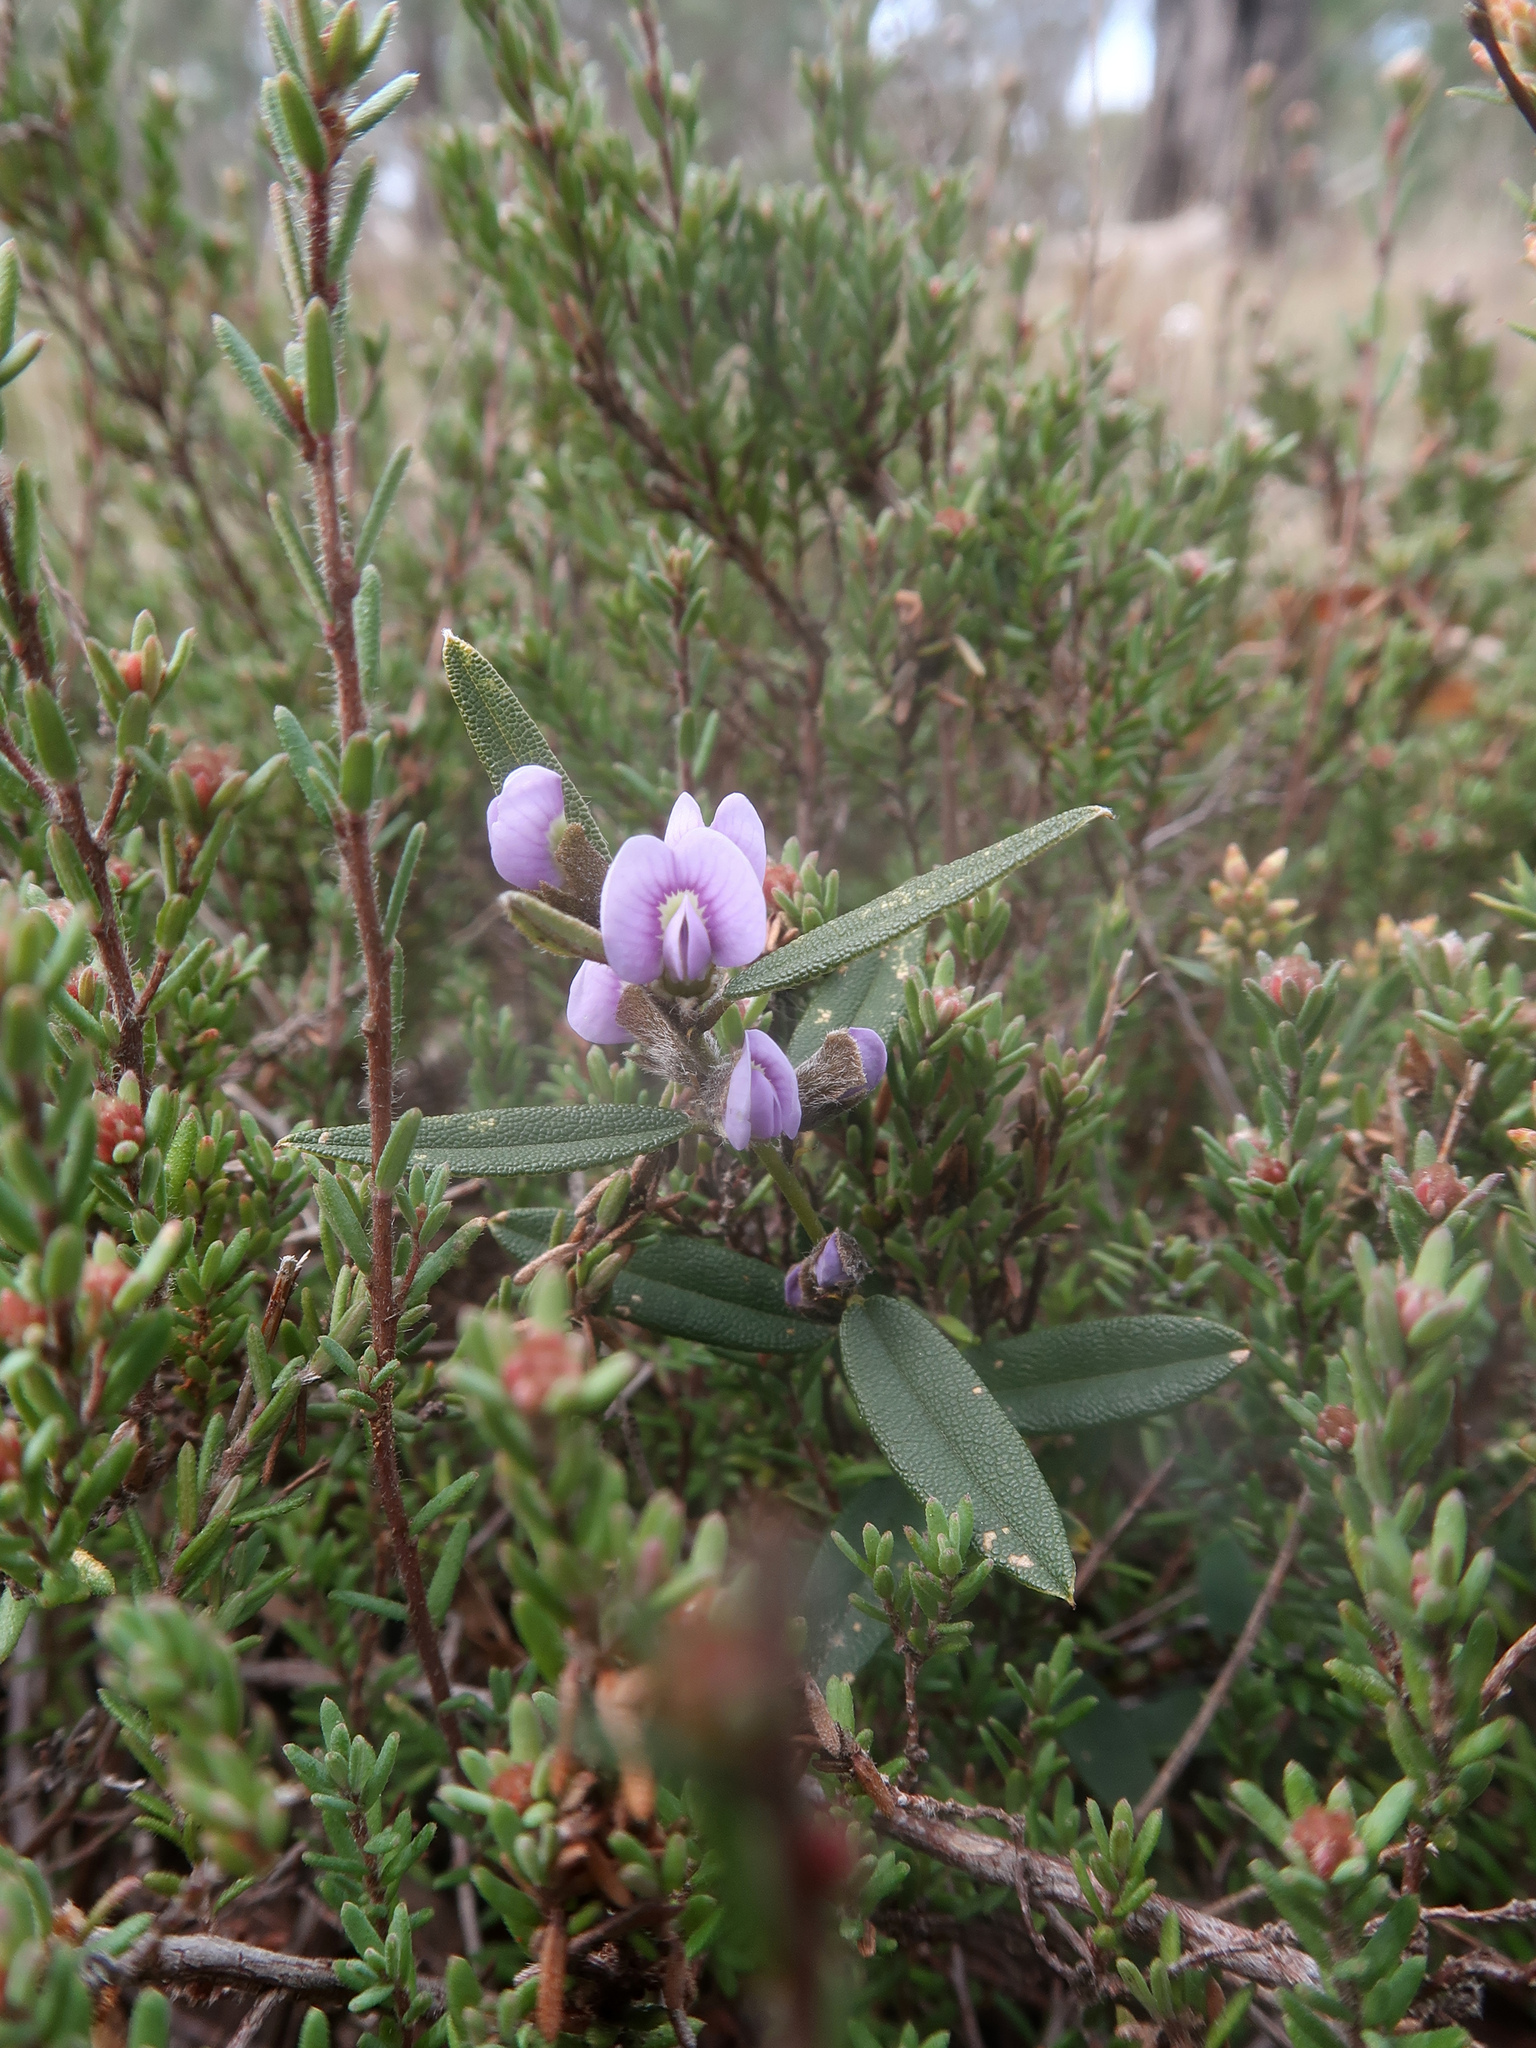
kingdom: Plantae
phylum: Tracheophyta
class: Magnoliopsida
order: Fabales
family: Fabaceae
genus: Hovea
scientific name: Hovea heterophylla
